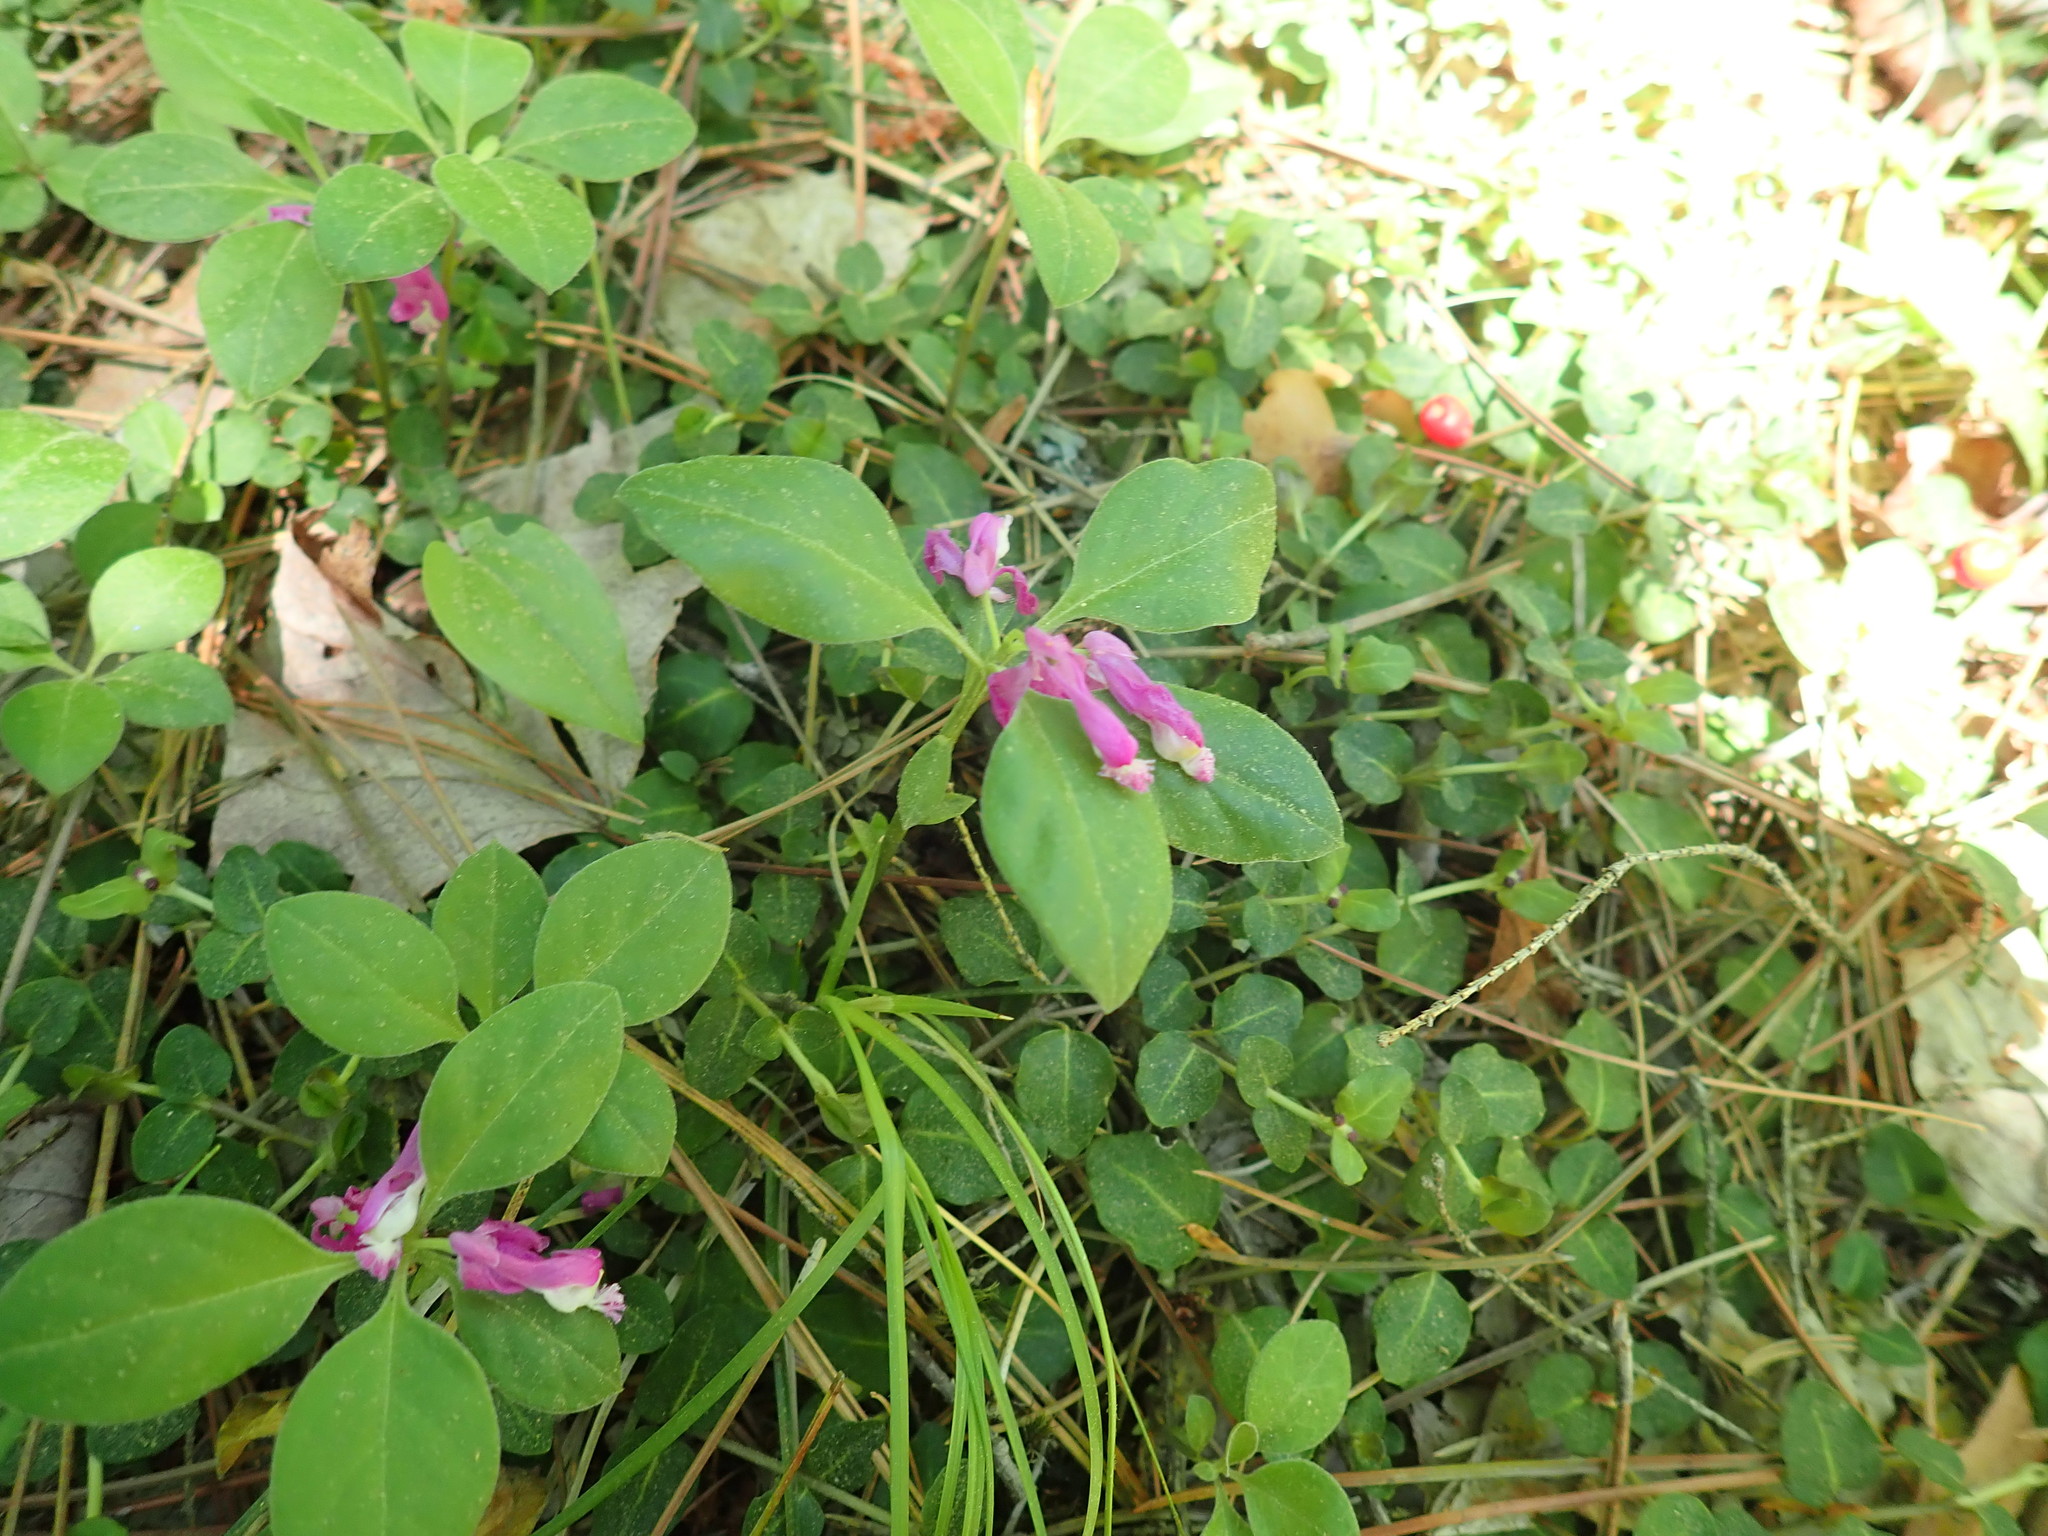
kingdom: Plantae
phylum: Tracheophyta
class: Magnoliopsida
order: Fabales
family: Polygalaceae
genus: Polygaloides
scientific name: Polygaloides paucifolia
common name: Bird-on-the-wing
